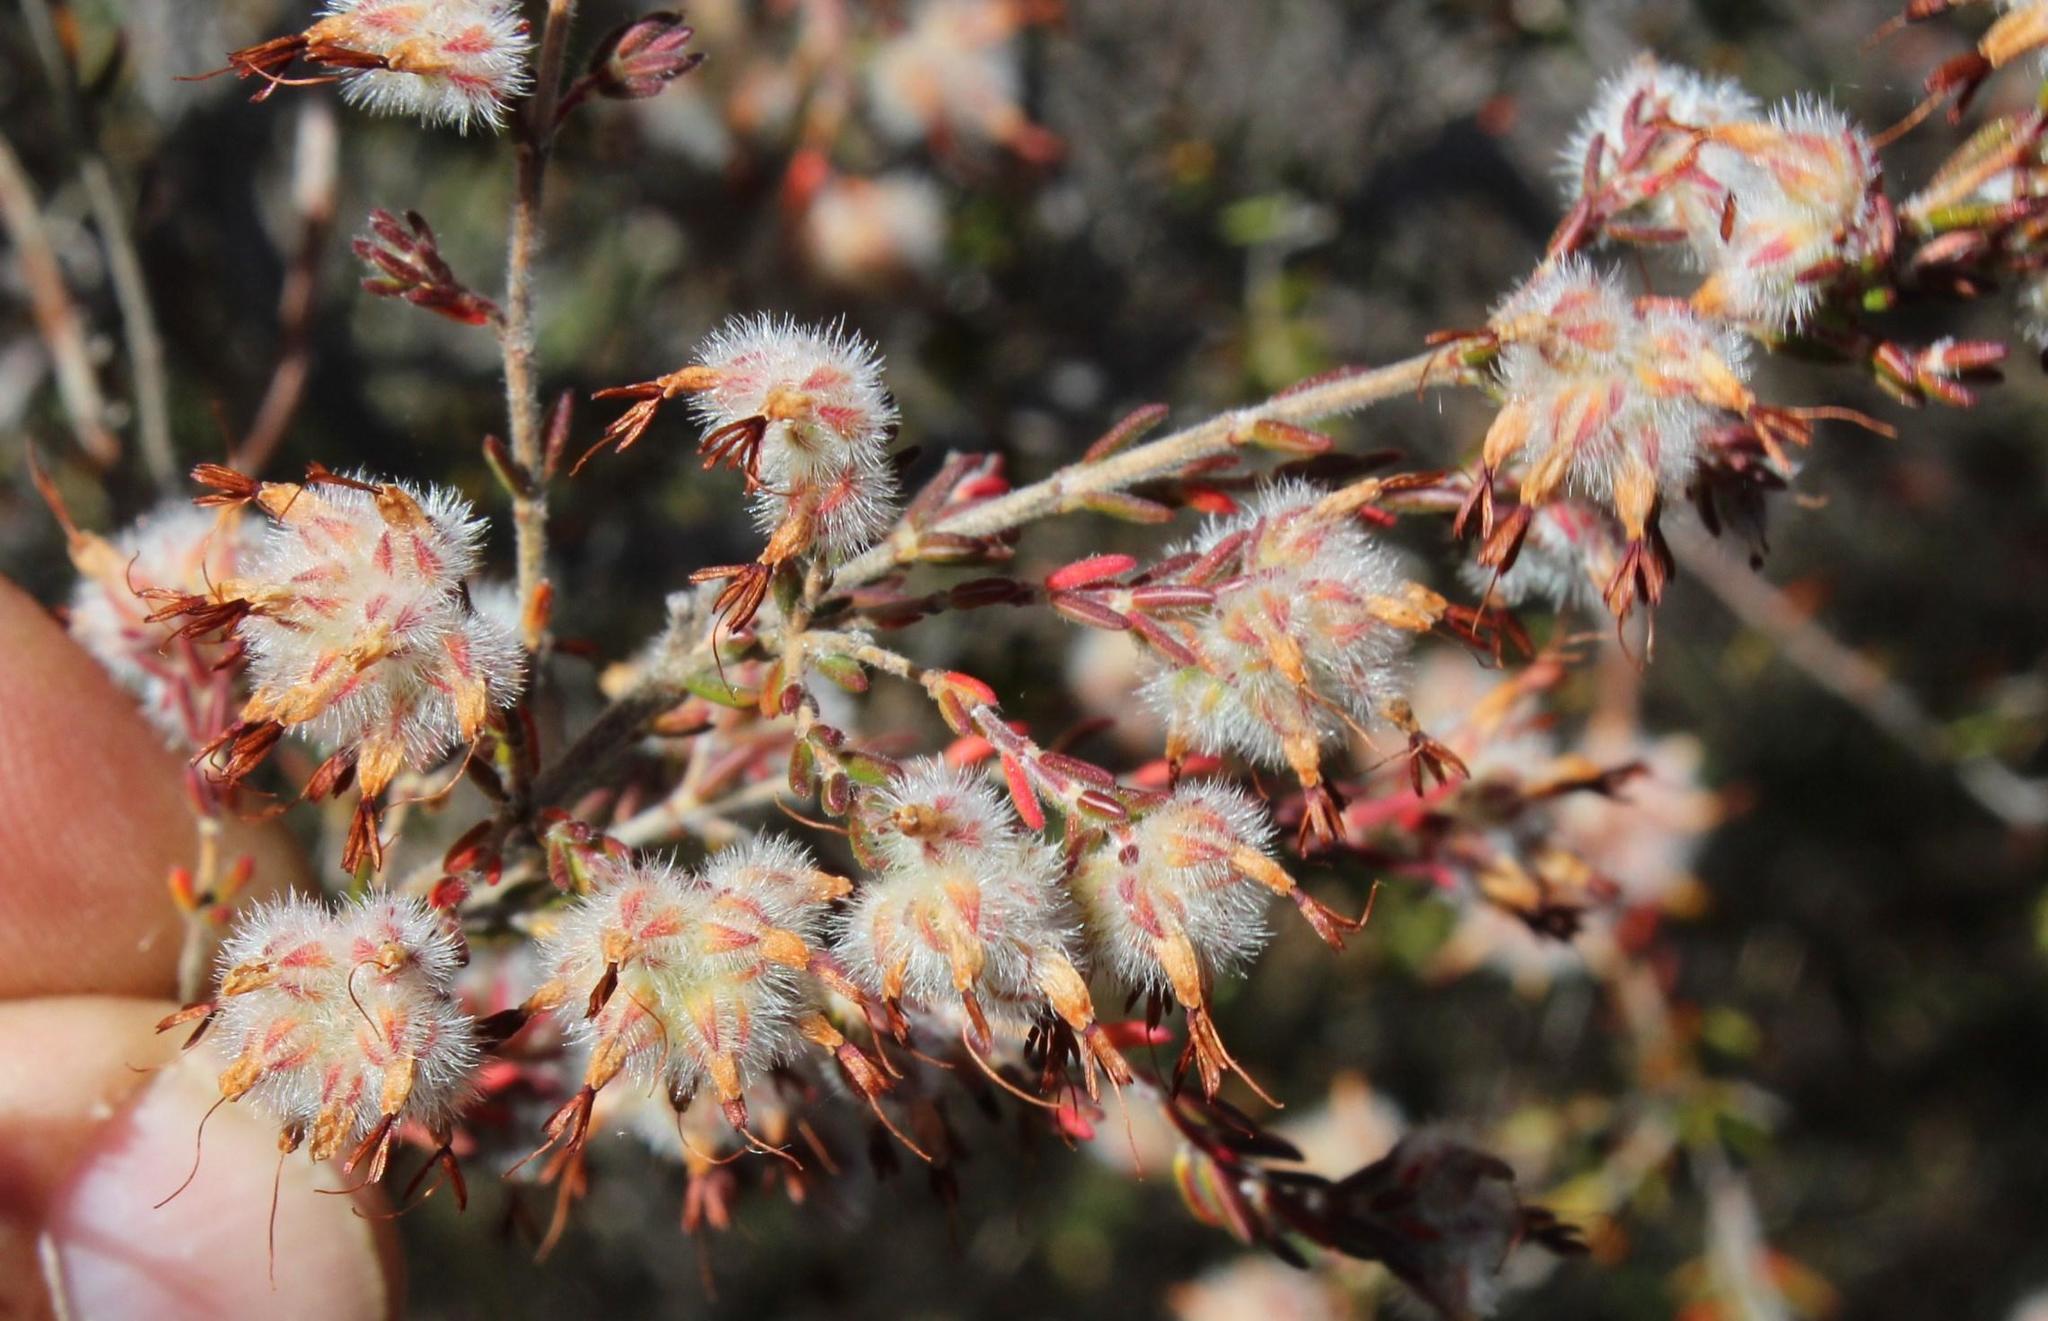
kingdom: Plantae
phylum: Tracheophyta
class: Magnoliopsida
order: Ericales
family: Ericaceae
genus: Erica
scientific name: Erica eriocephala
